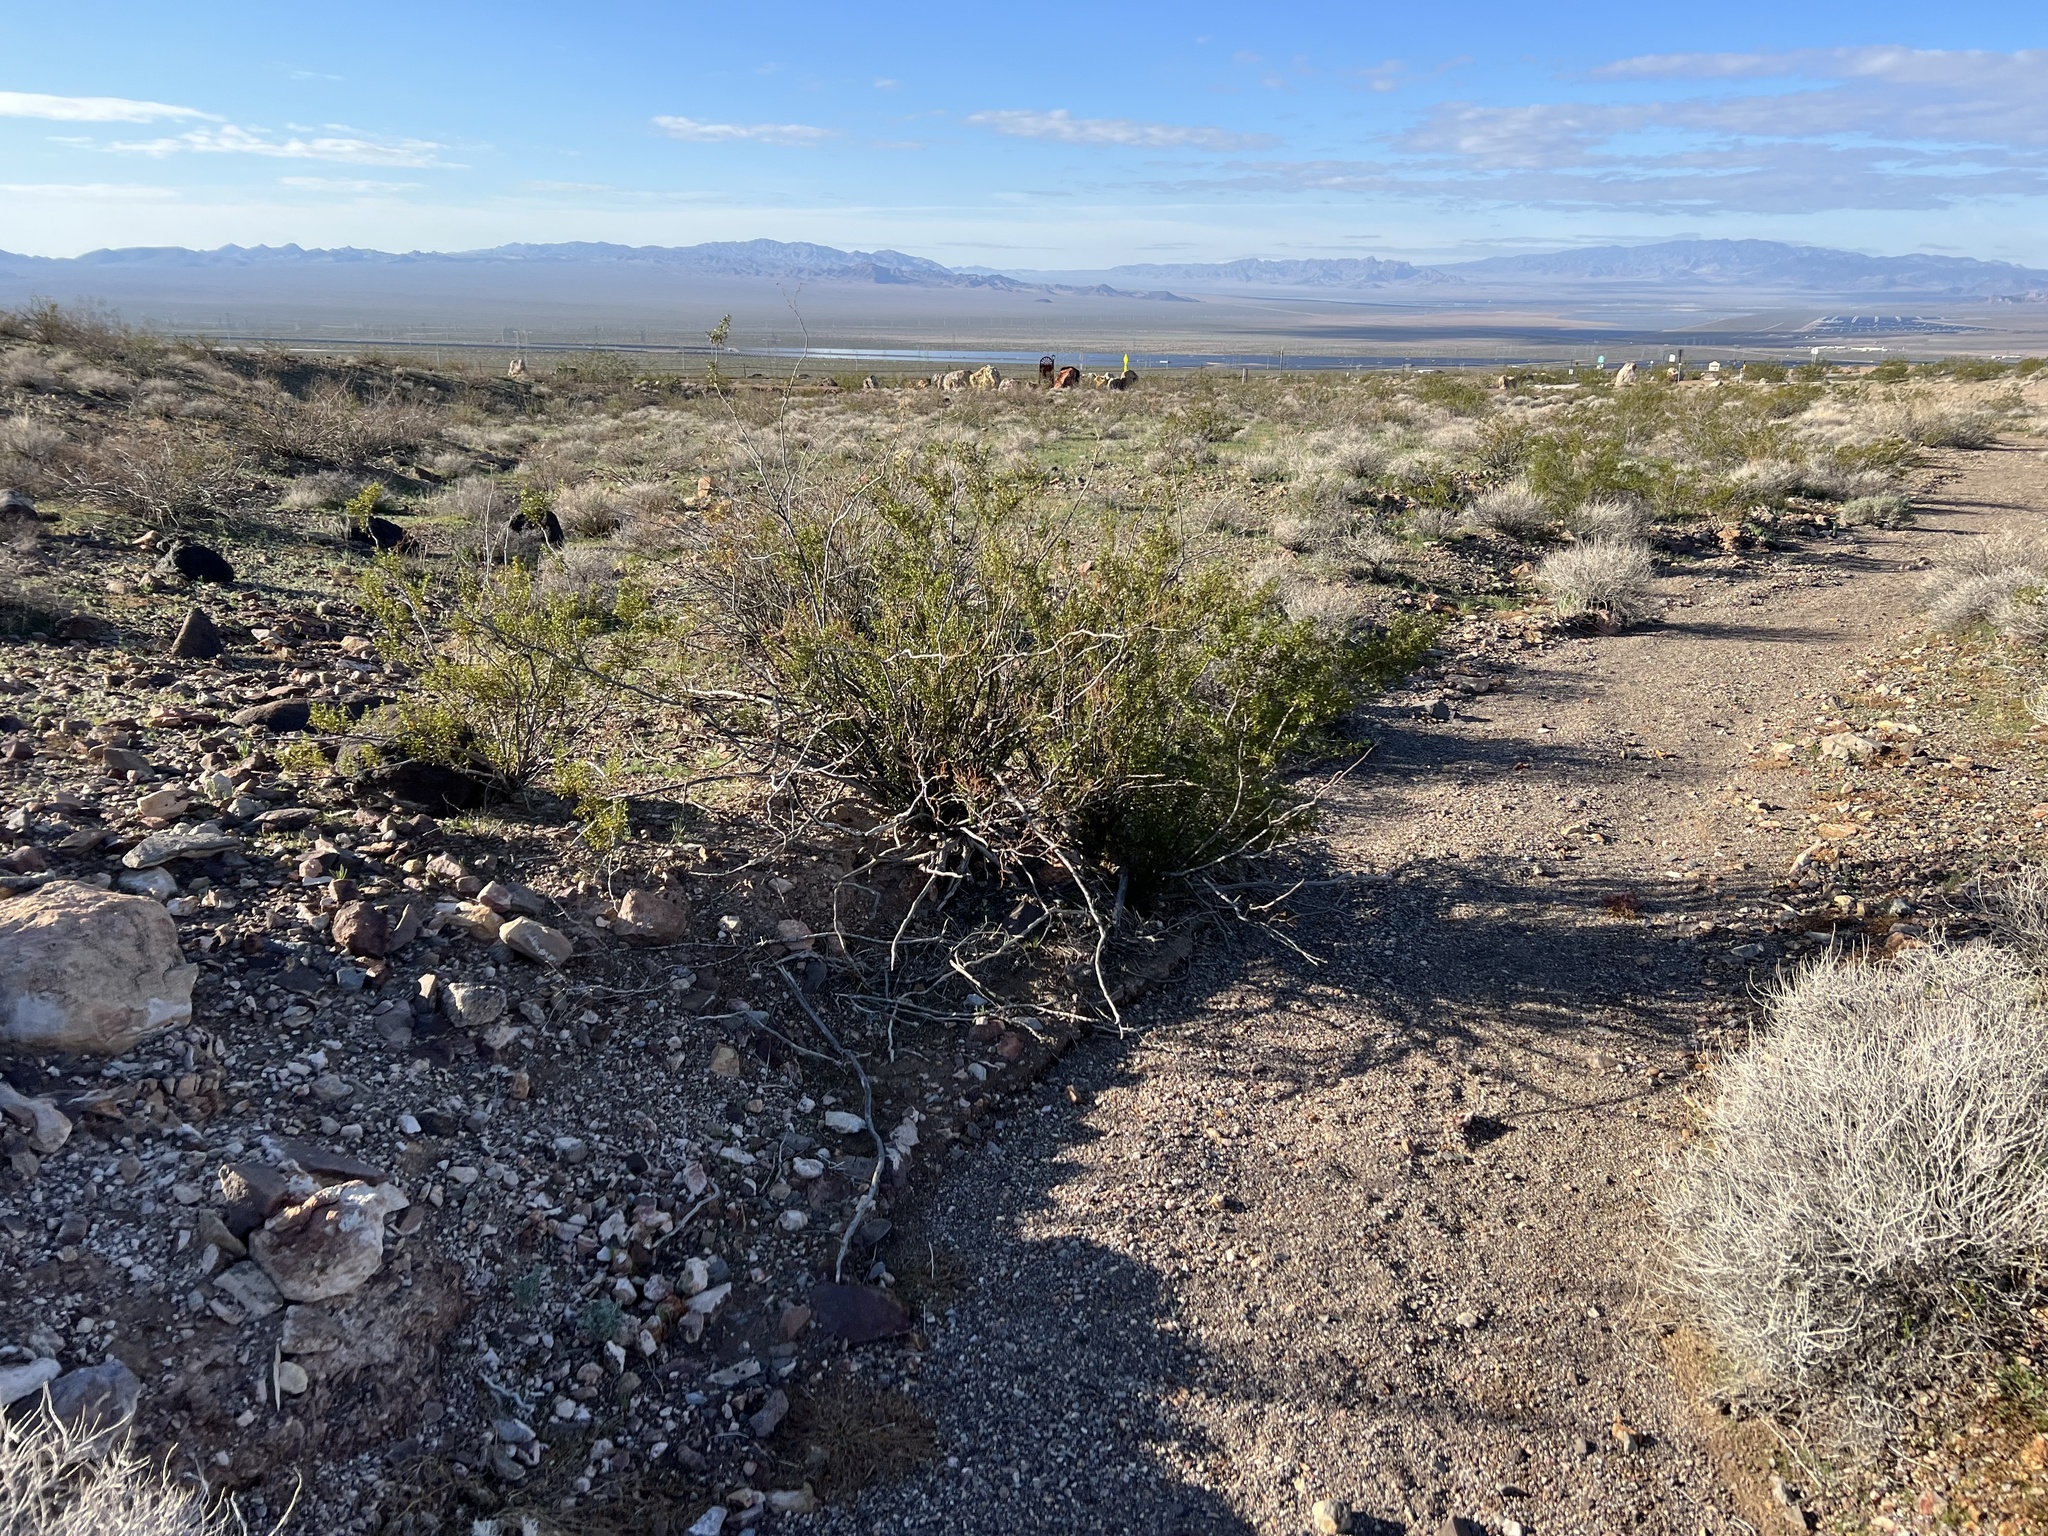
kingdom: Plantae
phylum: Tracheophyta
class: Magnoliopsida
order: Zygophyllales
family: Zygophyllaceae
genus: Larrea
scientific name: Larrea tridentata
